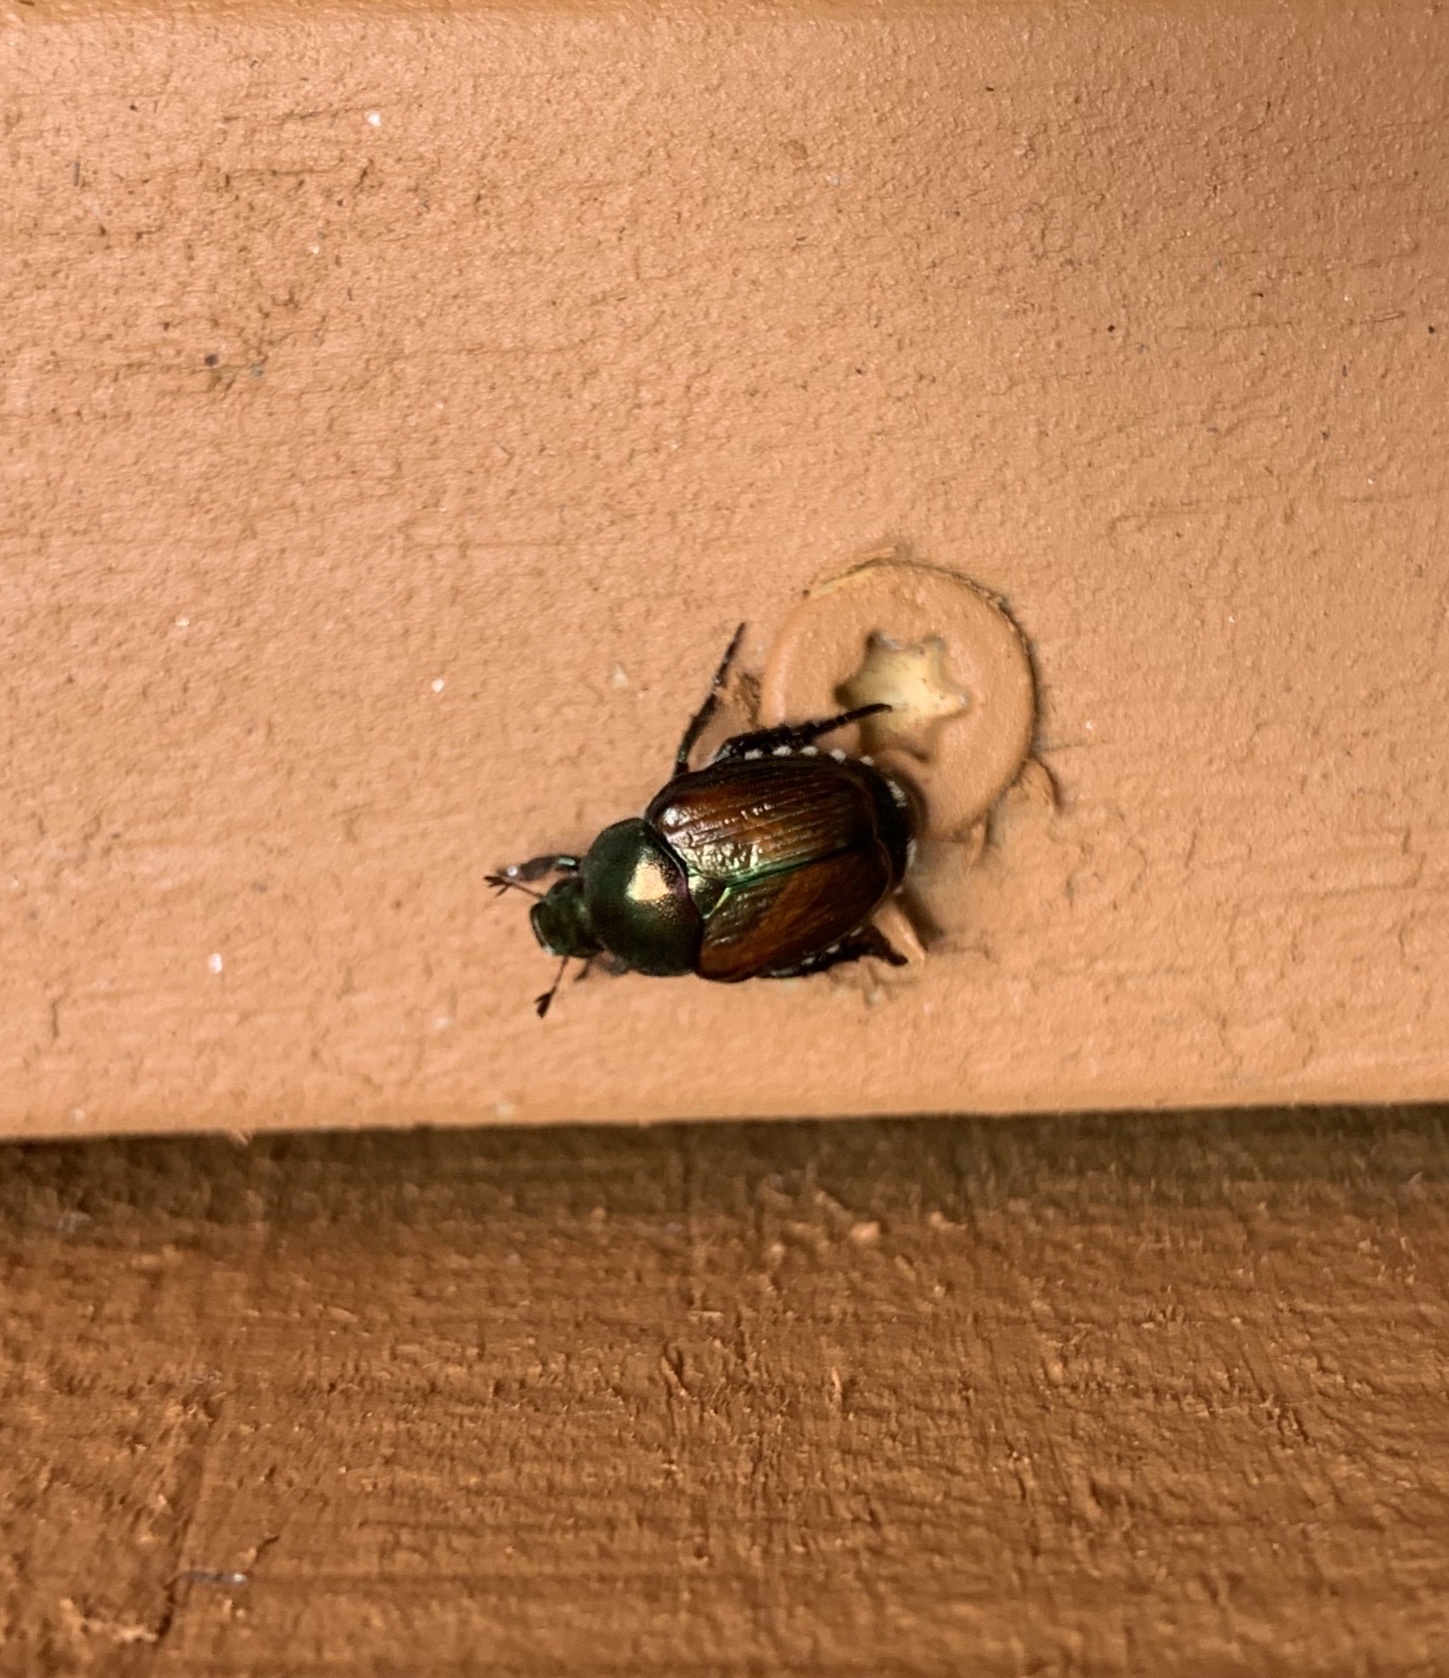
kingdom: Animalia
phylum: Arthropoda
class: Insecta
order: Coleoptera
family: Scarabaeidae
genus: Popillia
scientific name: Popillia japonica
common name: Japanese beetle
